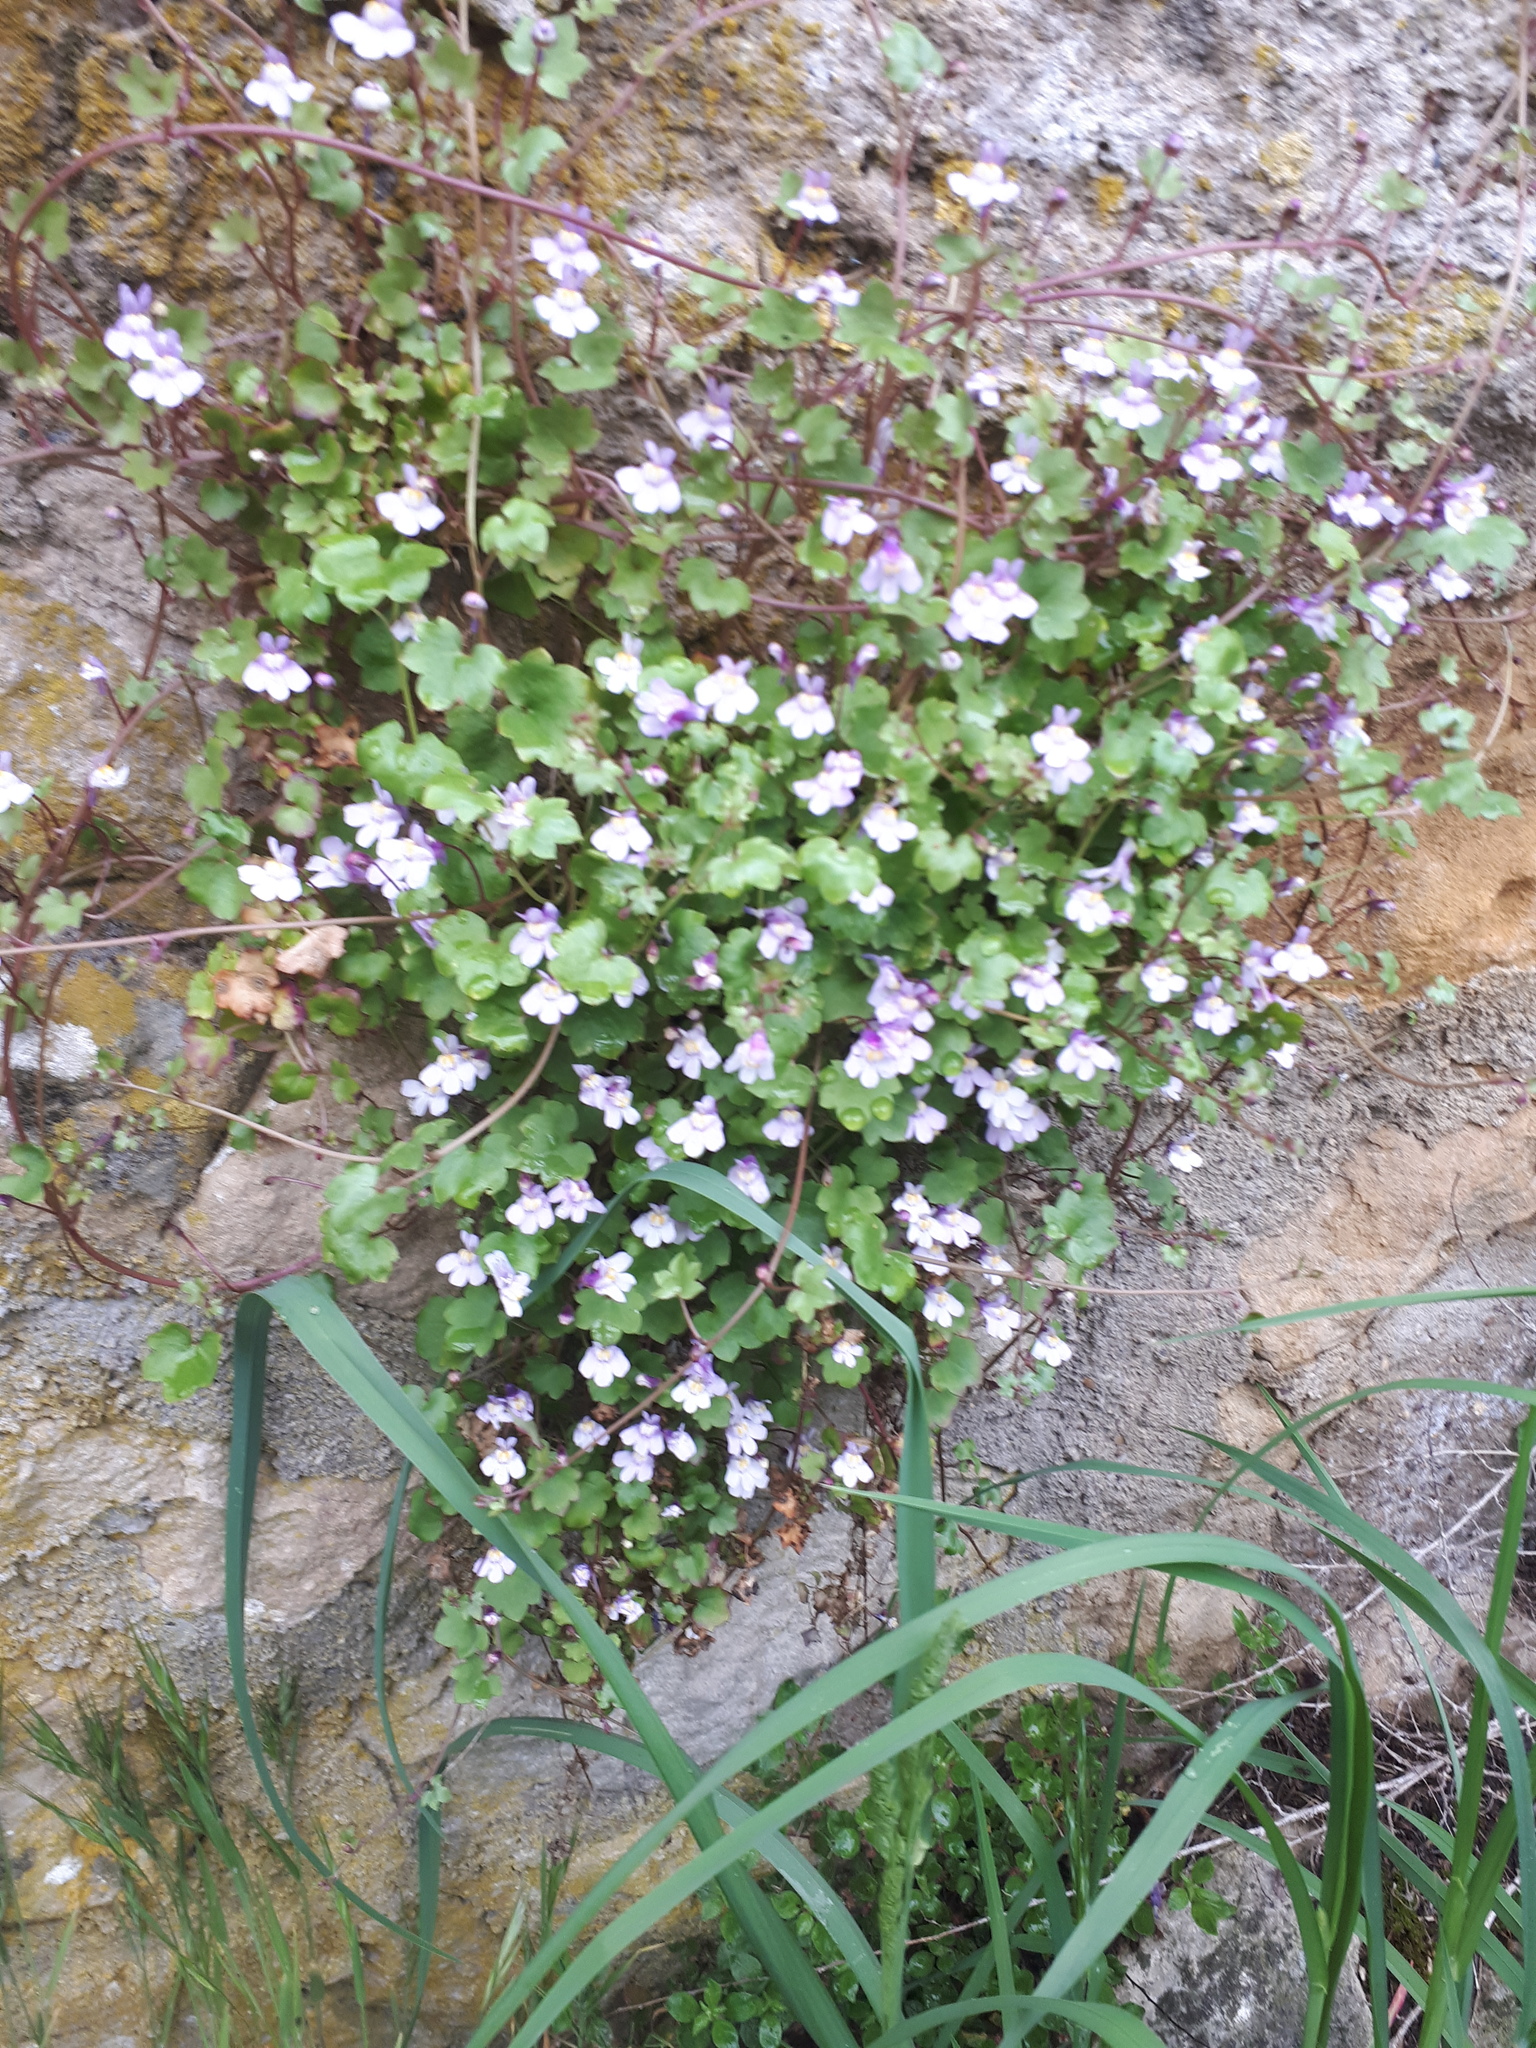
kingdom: Plantae
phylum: Tracheophyta
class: Magnoliopsida
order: Lamiales
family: Plantaginaceae
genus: Cymbalaria
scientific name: Cymbalaria muralis
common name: Ivy-leaved toadflax
